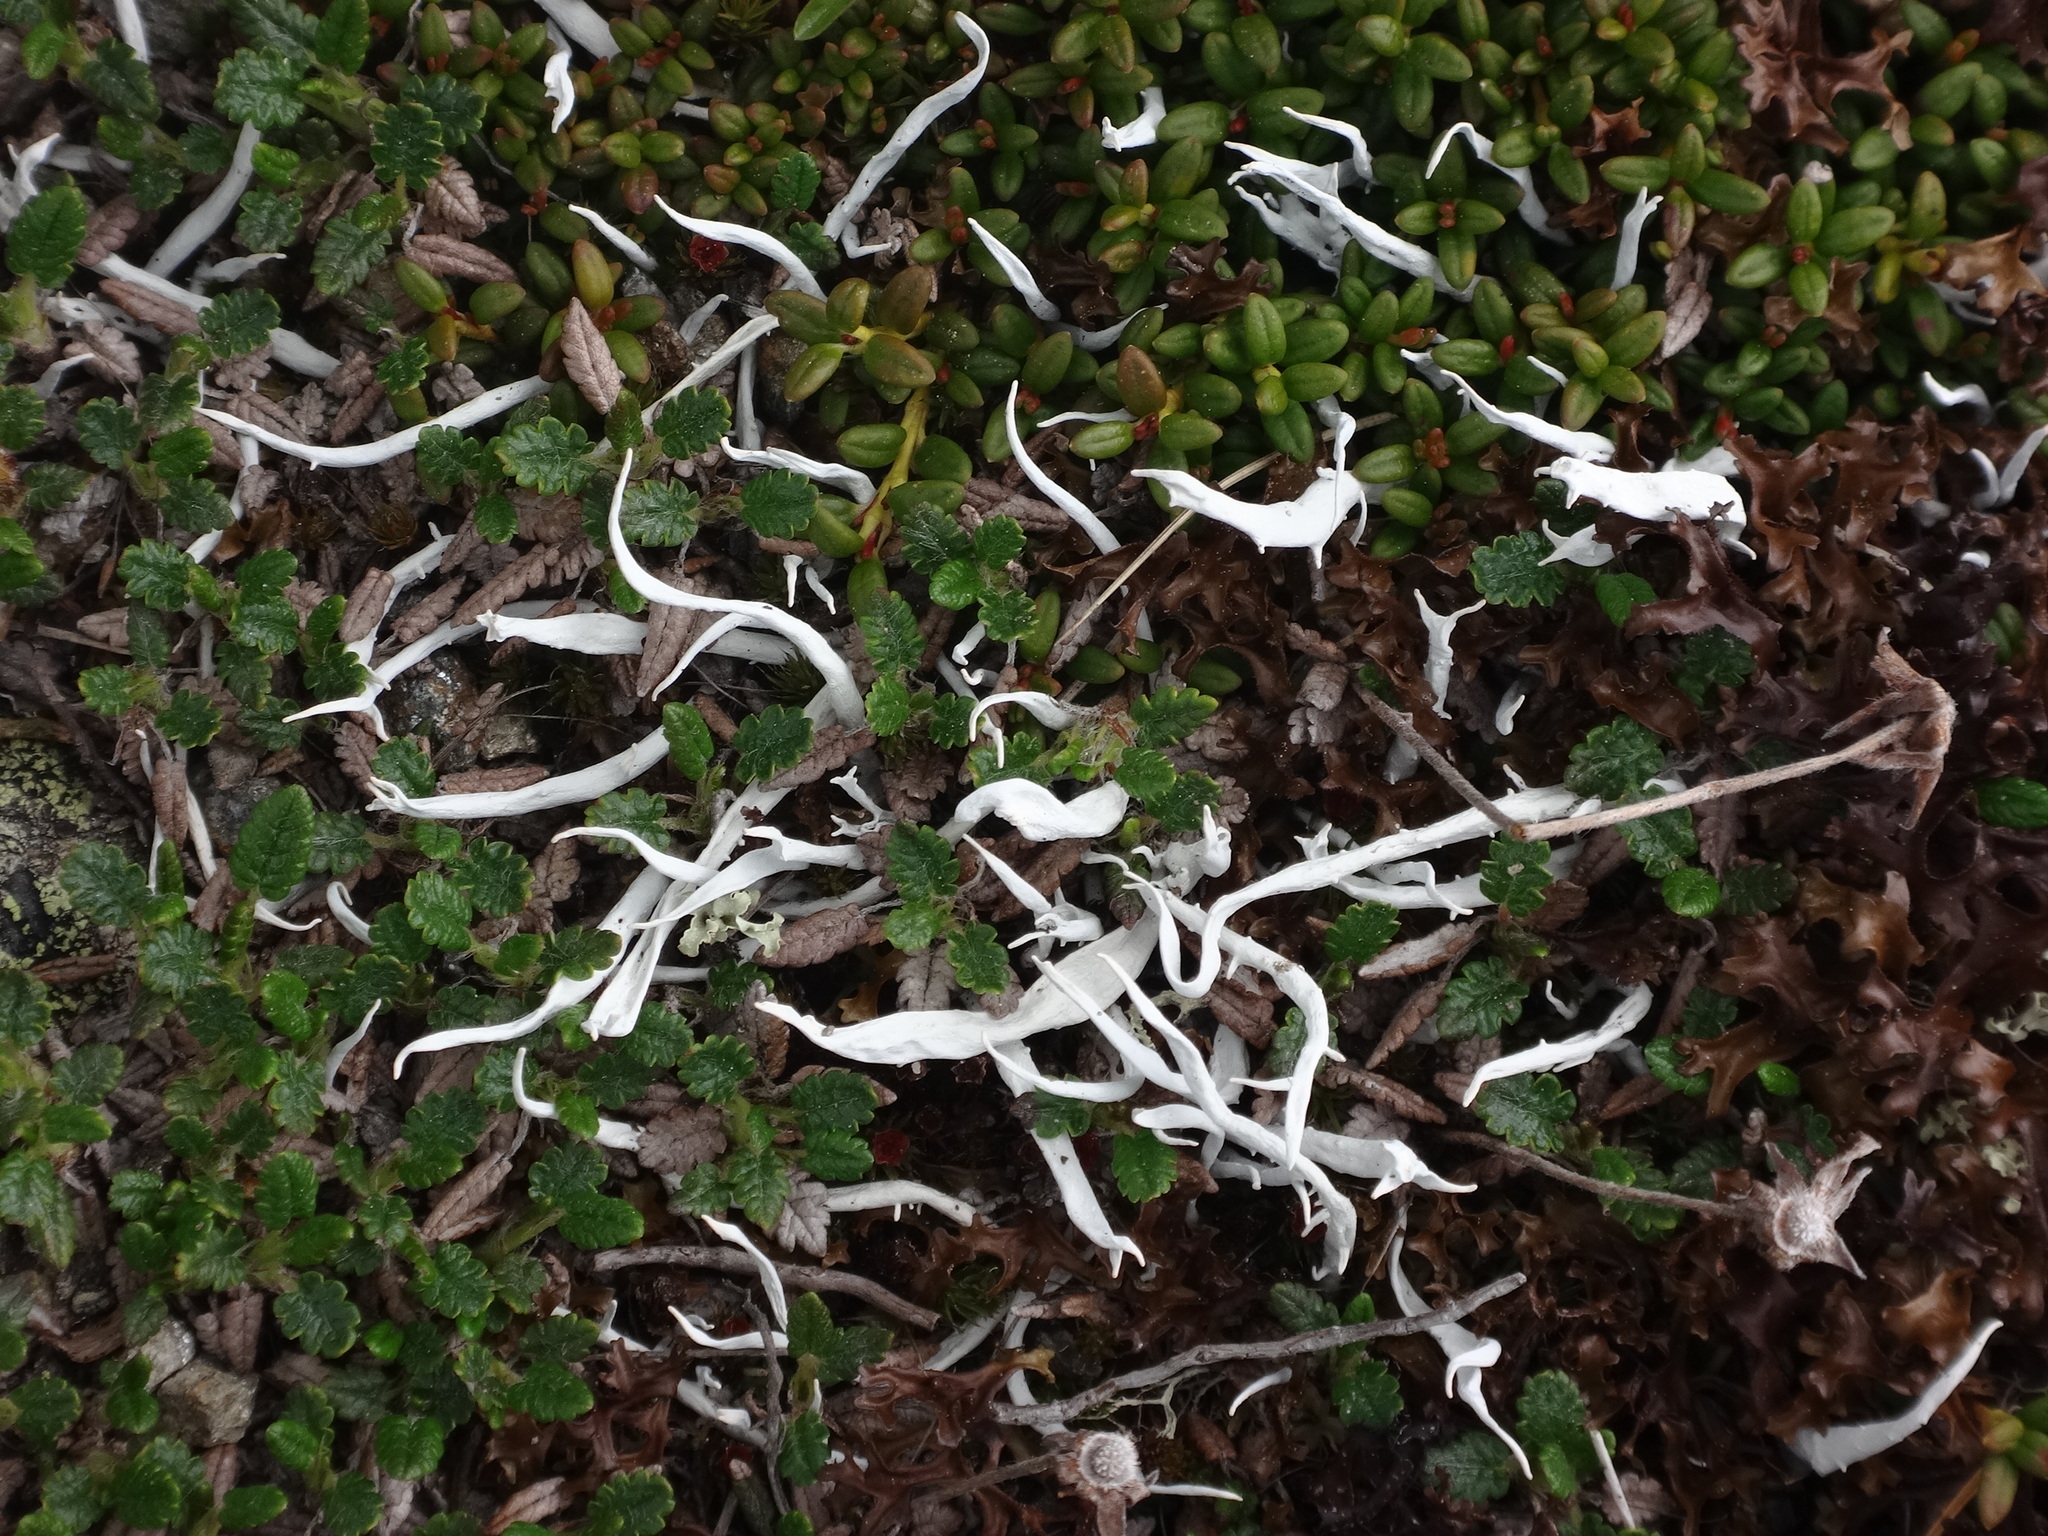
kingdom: Fungi
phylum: Ascomycota
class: Lecanoromycetes
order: Pertusariales
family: Icmadophilaceae
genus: Thamnolia
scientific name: Thamnolia vermicularis
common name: Whiteworm lichen
